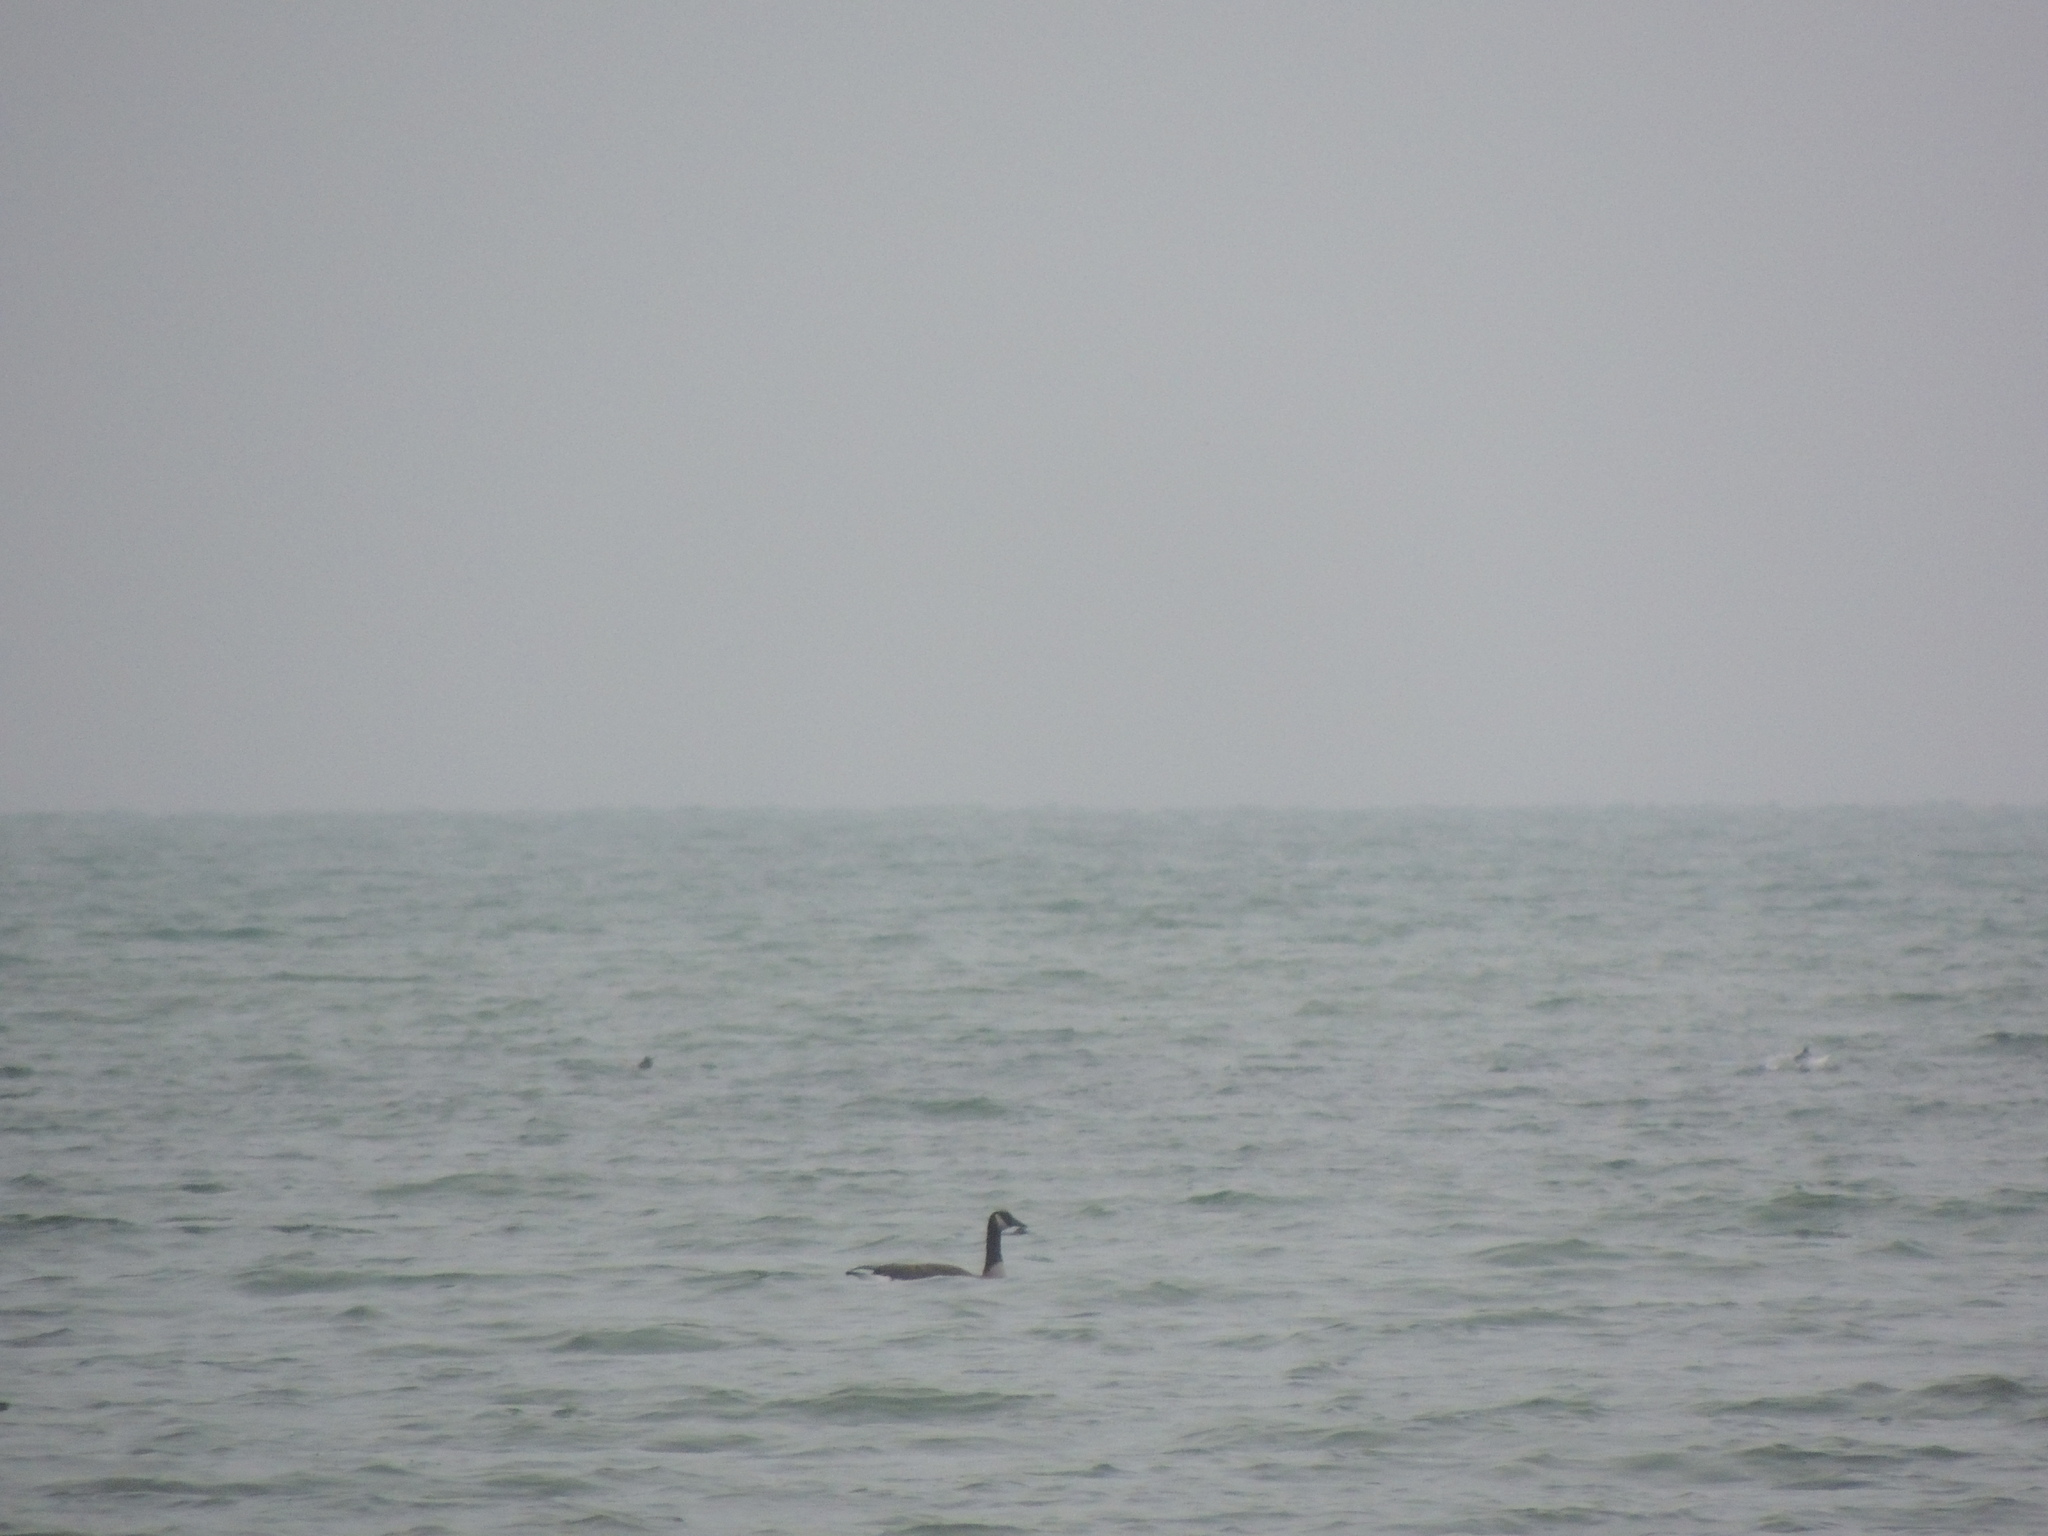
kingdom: Animalia
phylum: Chordata
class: Aves
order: Anseriformes
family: Anatidae
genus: Branta
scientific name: Branta canadensis
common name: Canada goose
